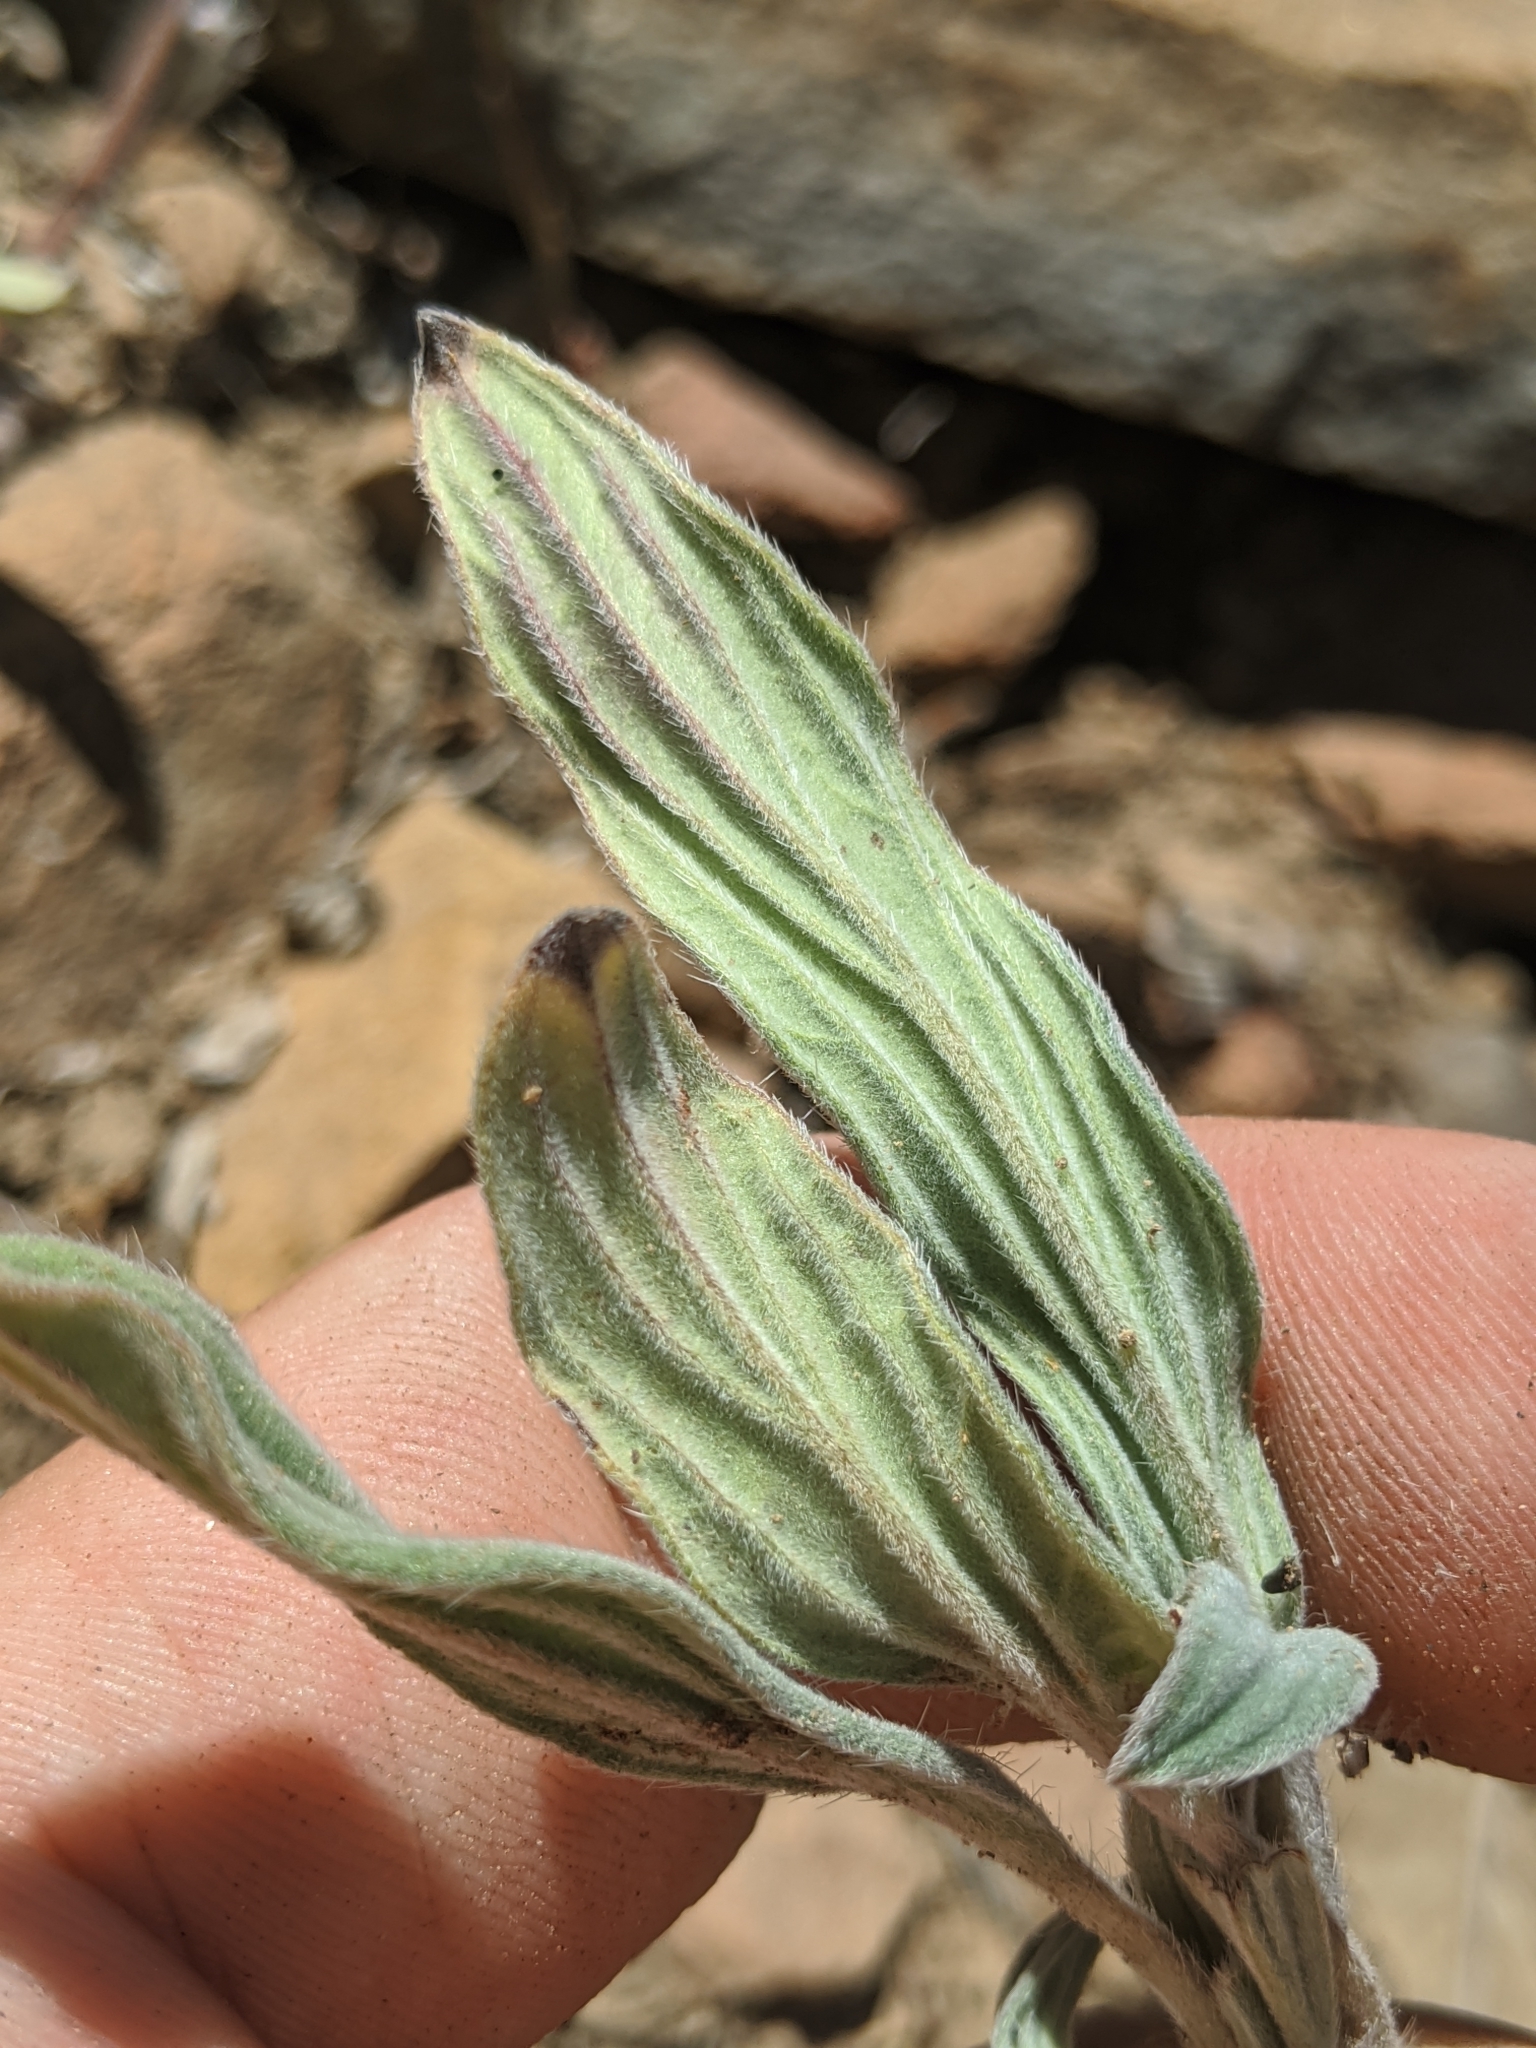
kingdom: Plantae
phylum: Tracheophyta
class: Magnoliopsida
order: Boraginales
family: Hydrophyllaceae
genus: Phacelia
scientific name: Phacelia hastata
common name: Silver-leaved phacelia
